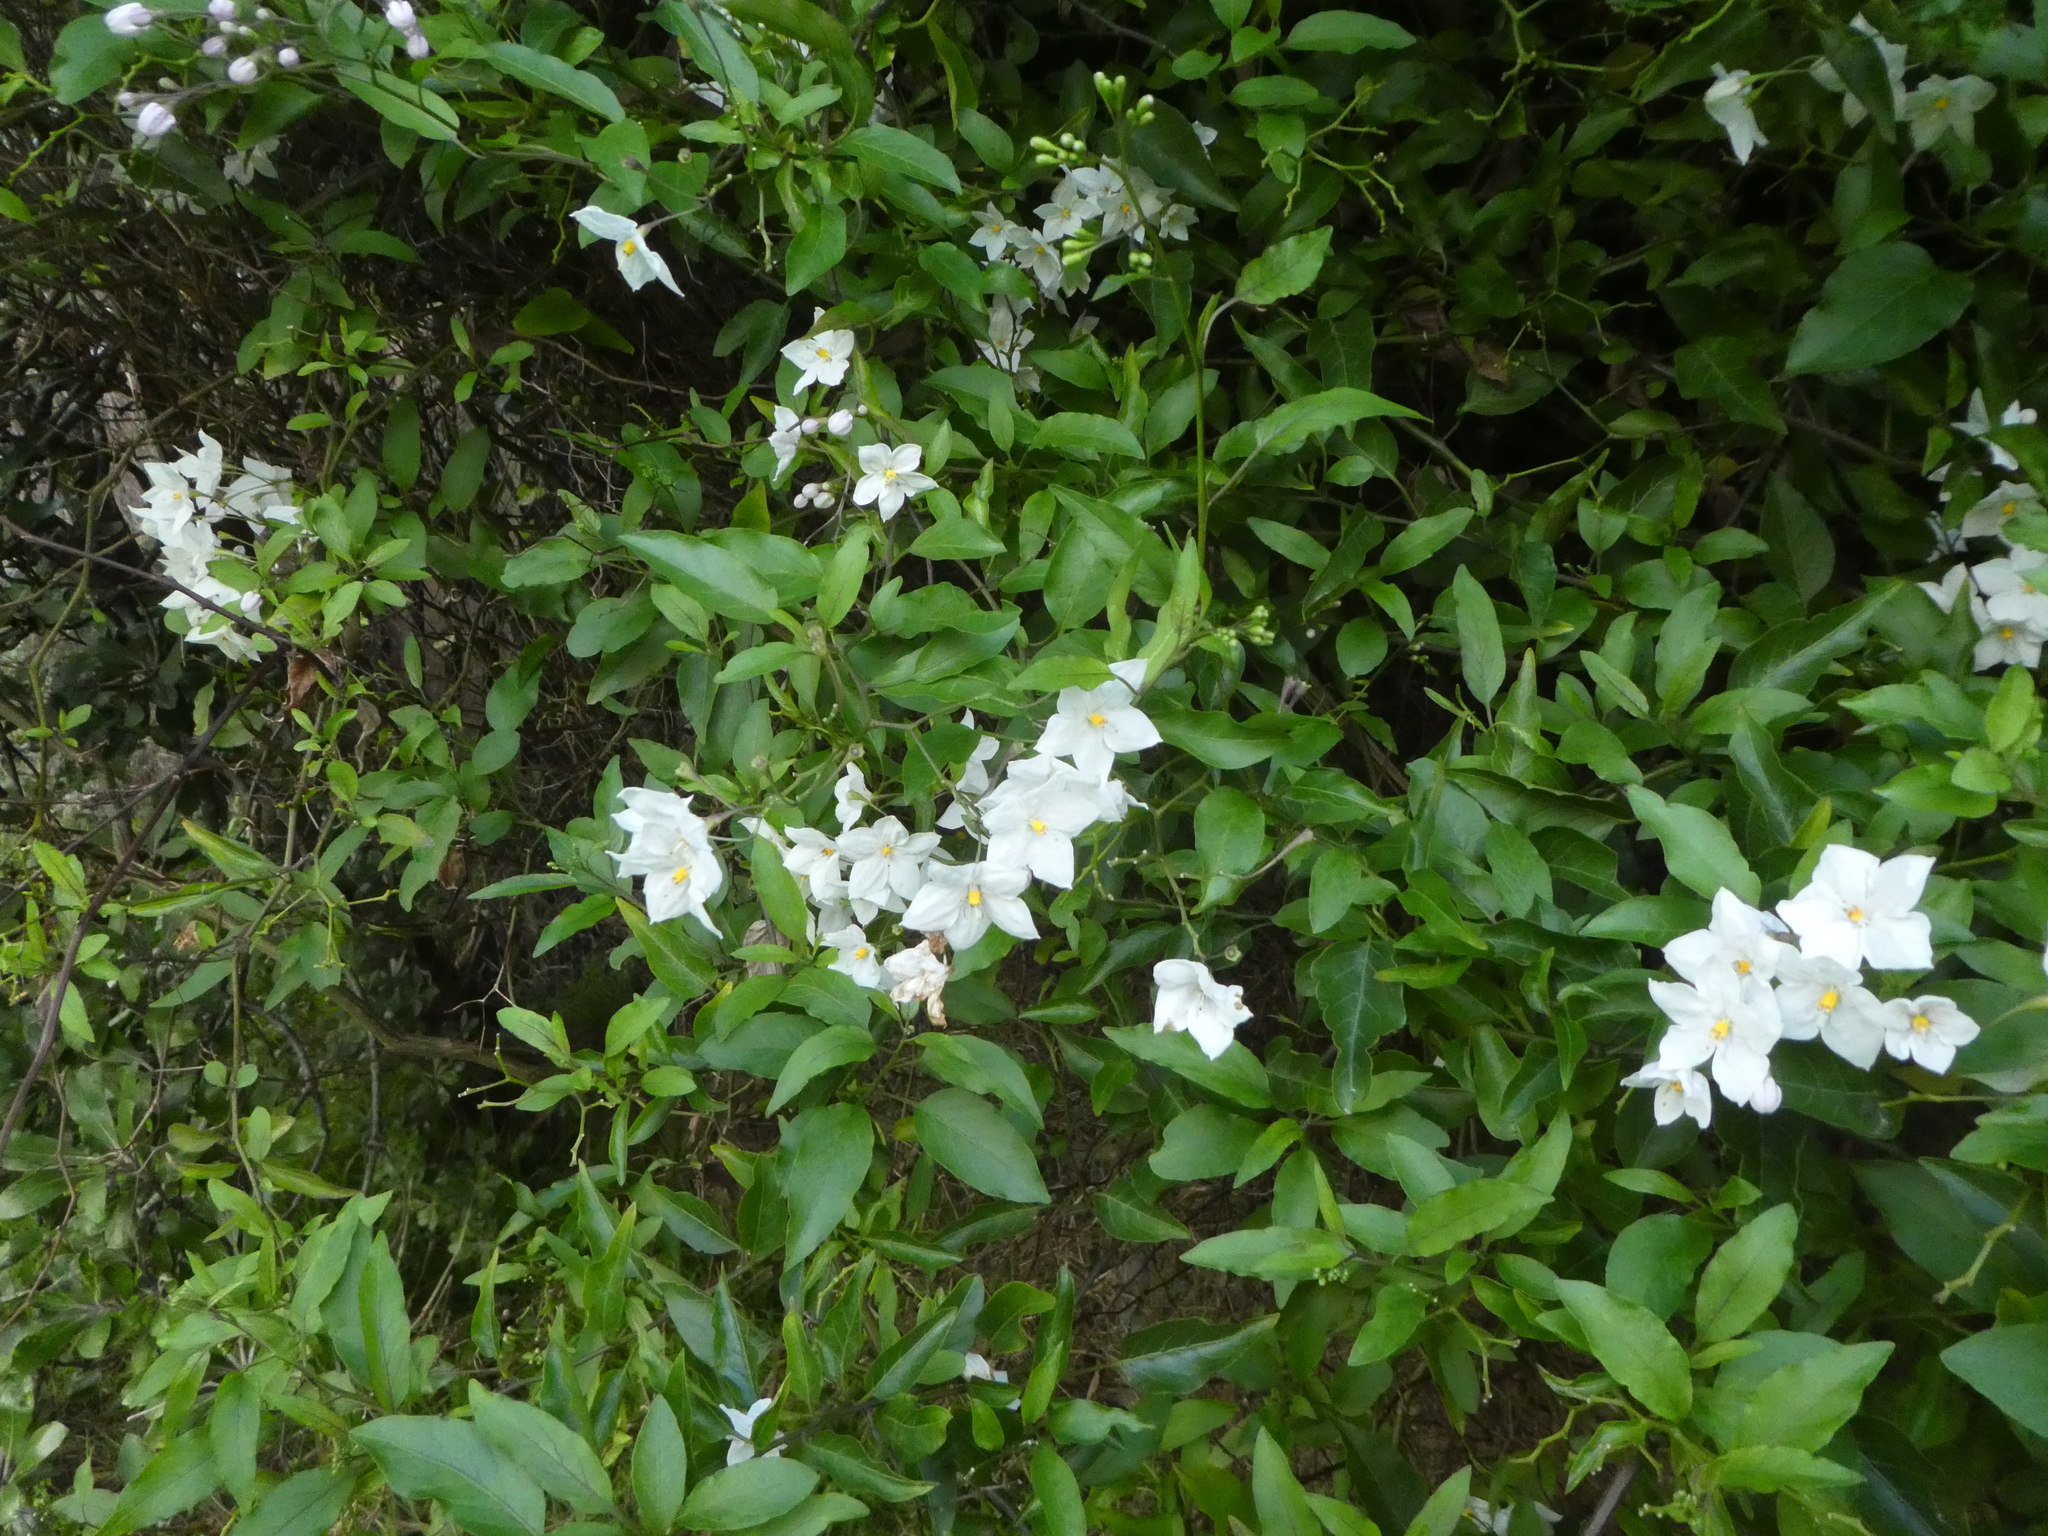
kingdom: Plantae
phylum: Tracheophyta
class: Magnoliopsida
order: Solanales
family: Solanaceae
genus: Solanum
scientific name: Solanum laxum
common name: Nightshade
